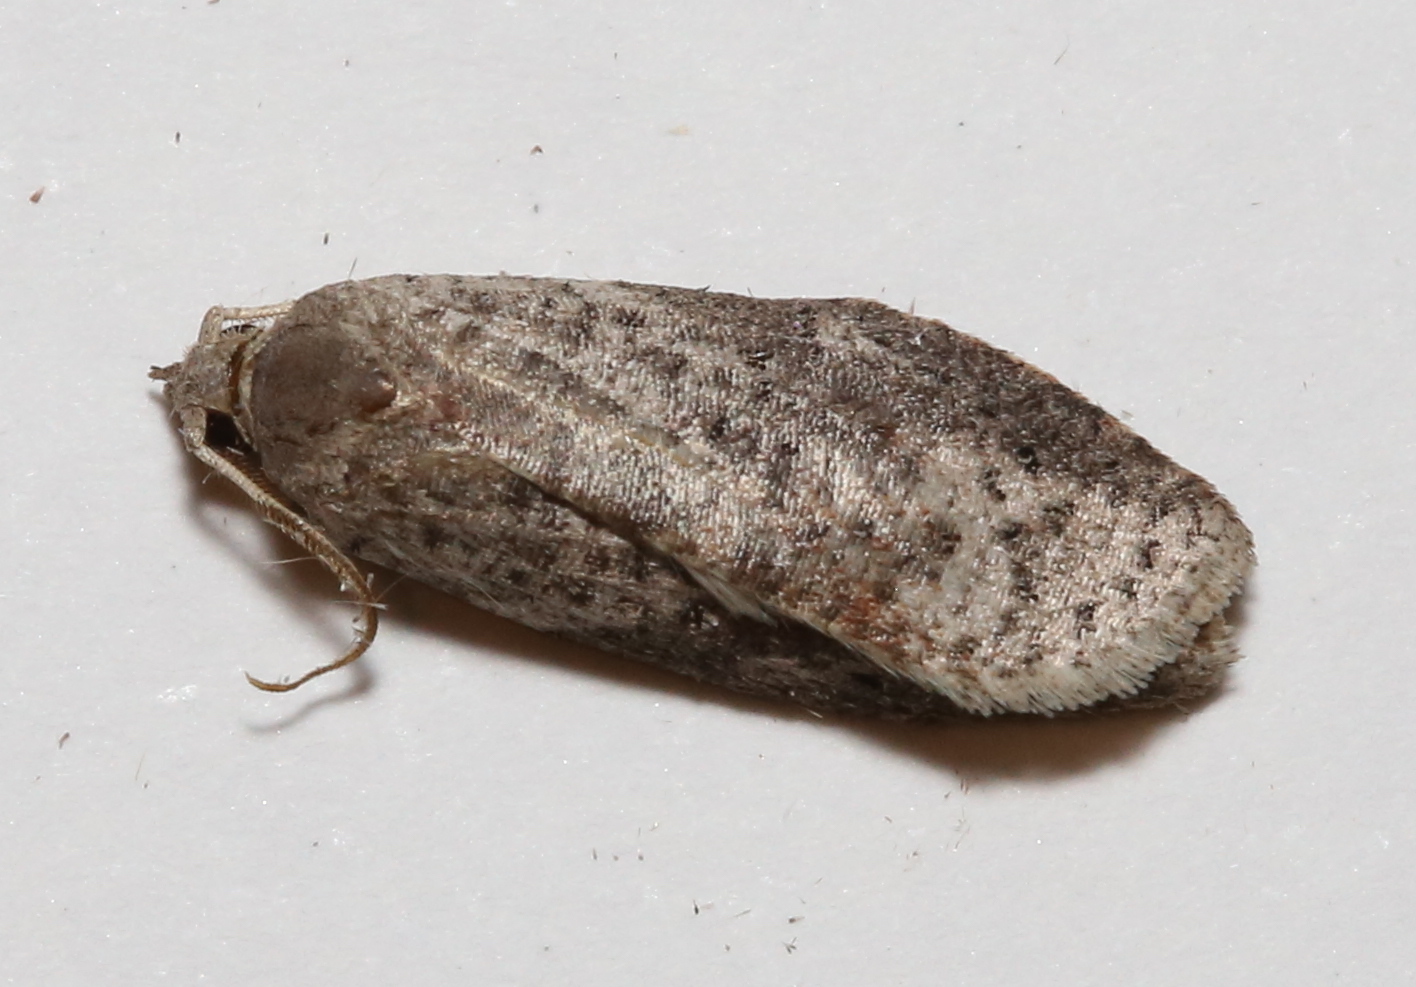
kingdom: Animalia
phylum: Arthropoda
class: Insecta
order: Lepidoptera
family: Tortricidae
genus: Amorbia
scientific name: Amorbia humerosana
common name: White-lined leafroller moth
